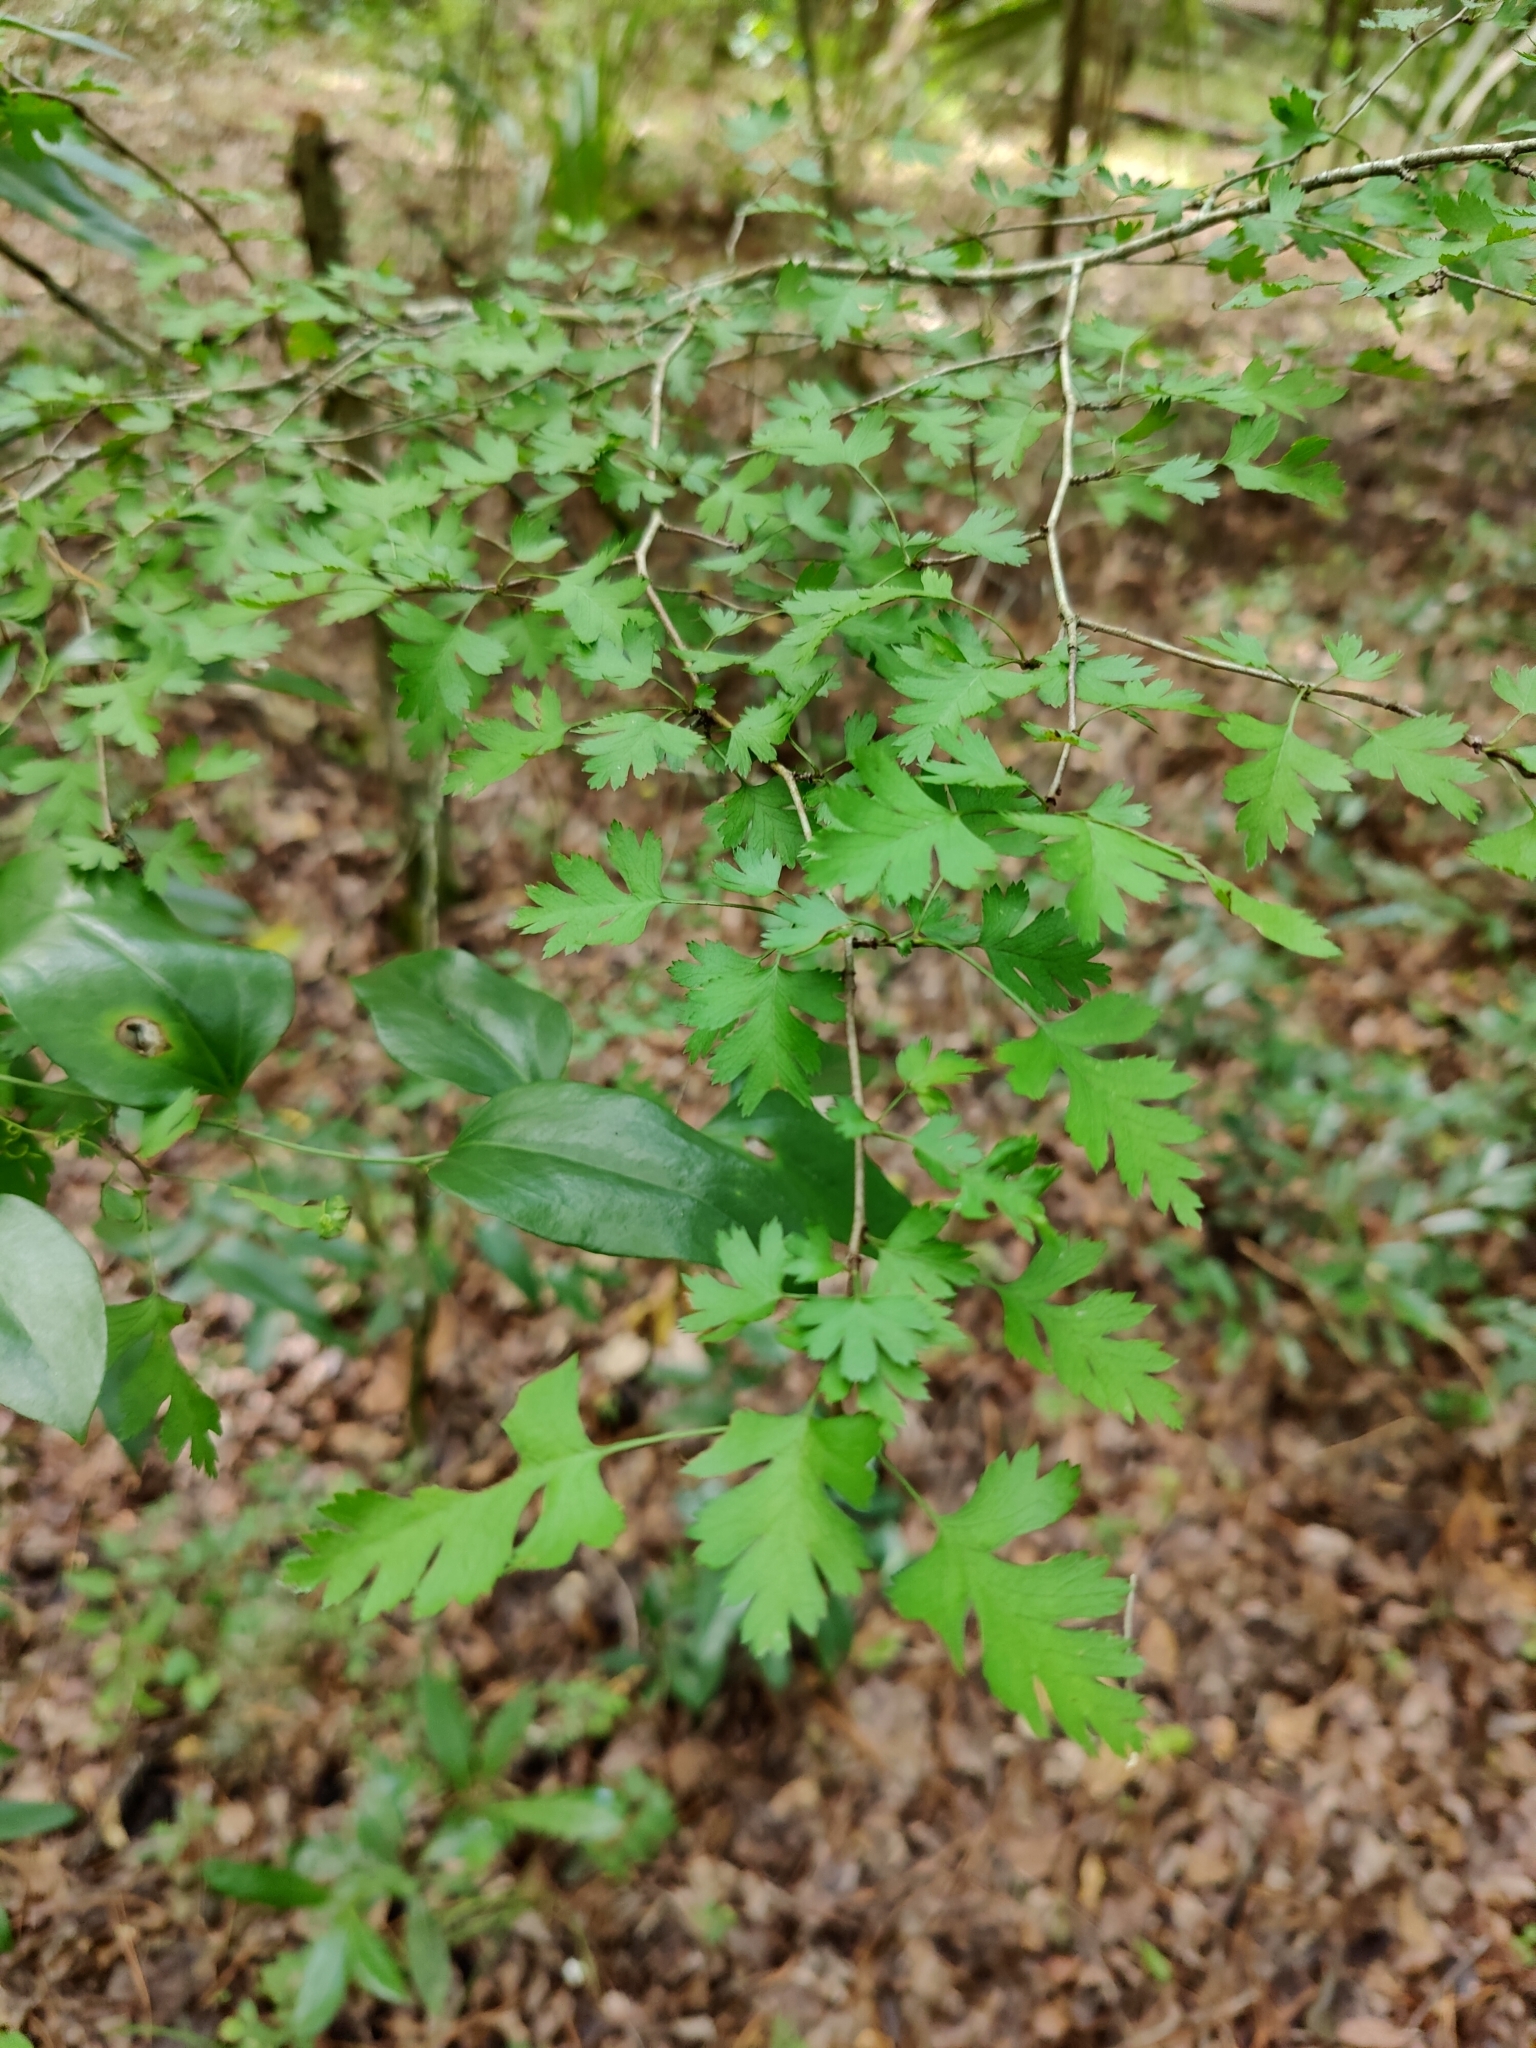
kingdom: Plantae
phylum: Tracheophyta
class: Magnoliopsida
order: Rosales
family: Rosaceae
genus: Crataegus
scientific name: Crataegus marshallii
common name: Parsley-hawthorn
